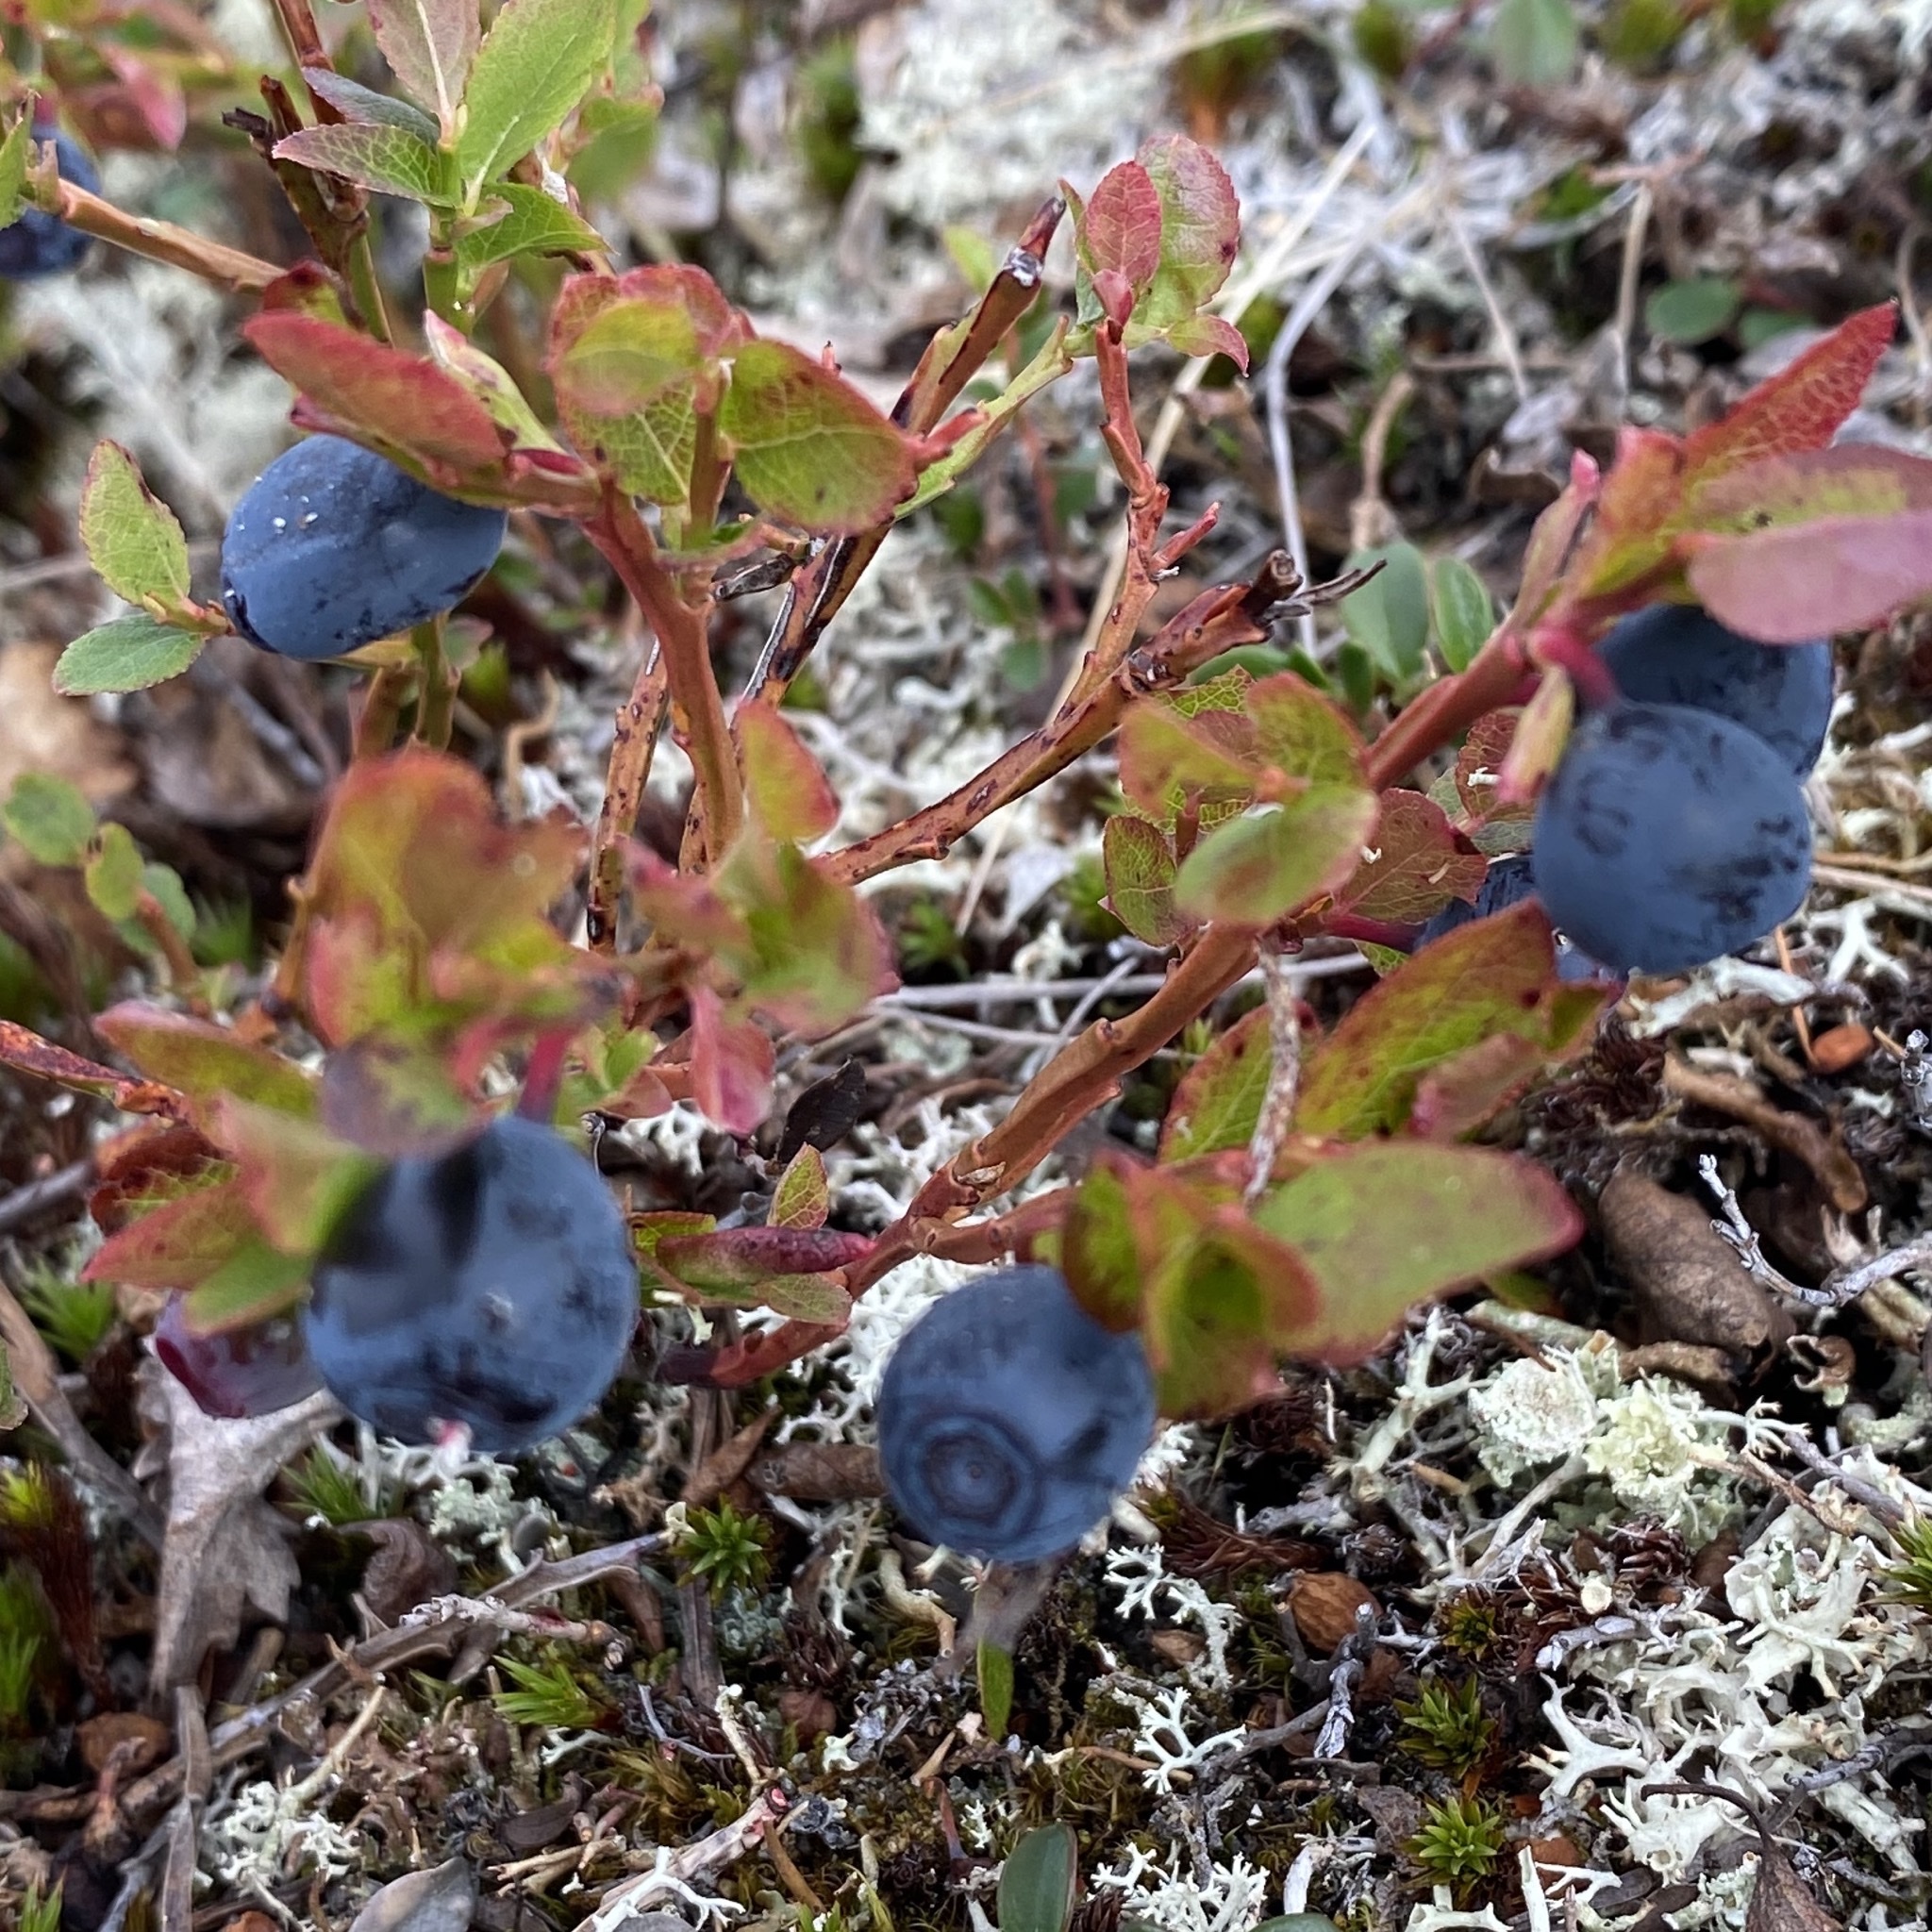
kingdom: Plantae
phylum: Tracheophyta
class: Magnoliopsida
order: Ericales
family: Ericaceae
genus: Vaccinium
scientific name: Vaccinium myrtillus
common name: Bilberry
